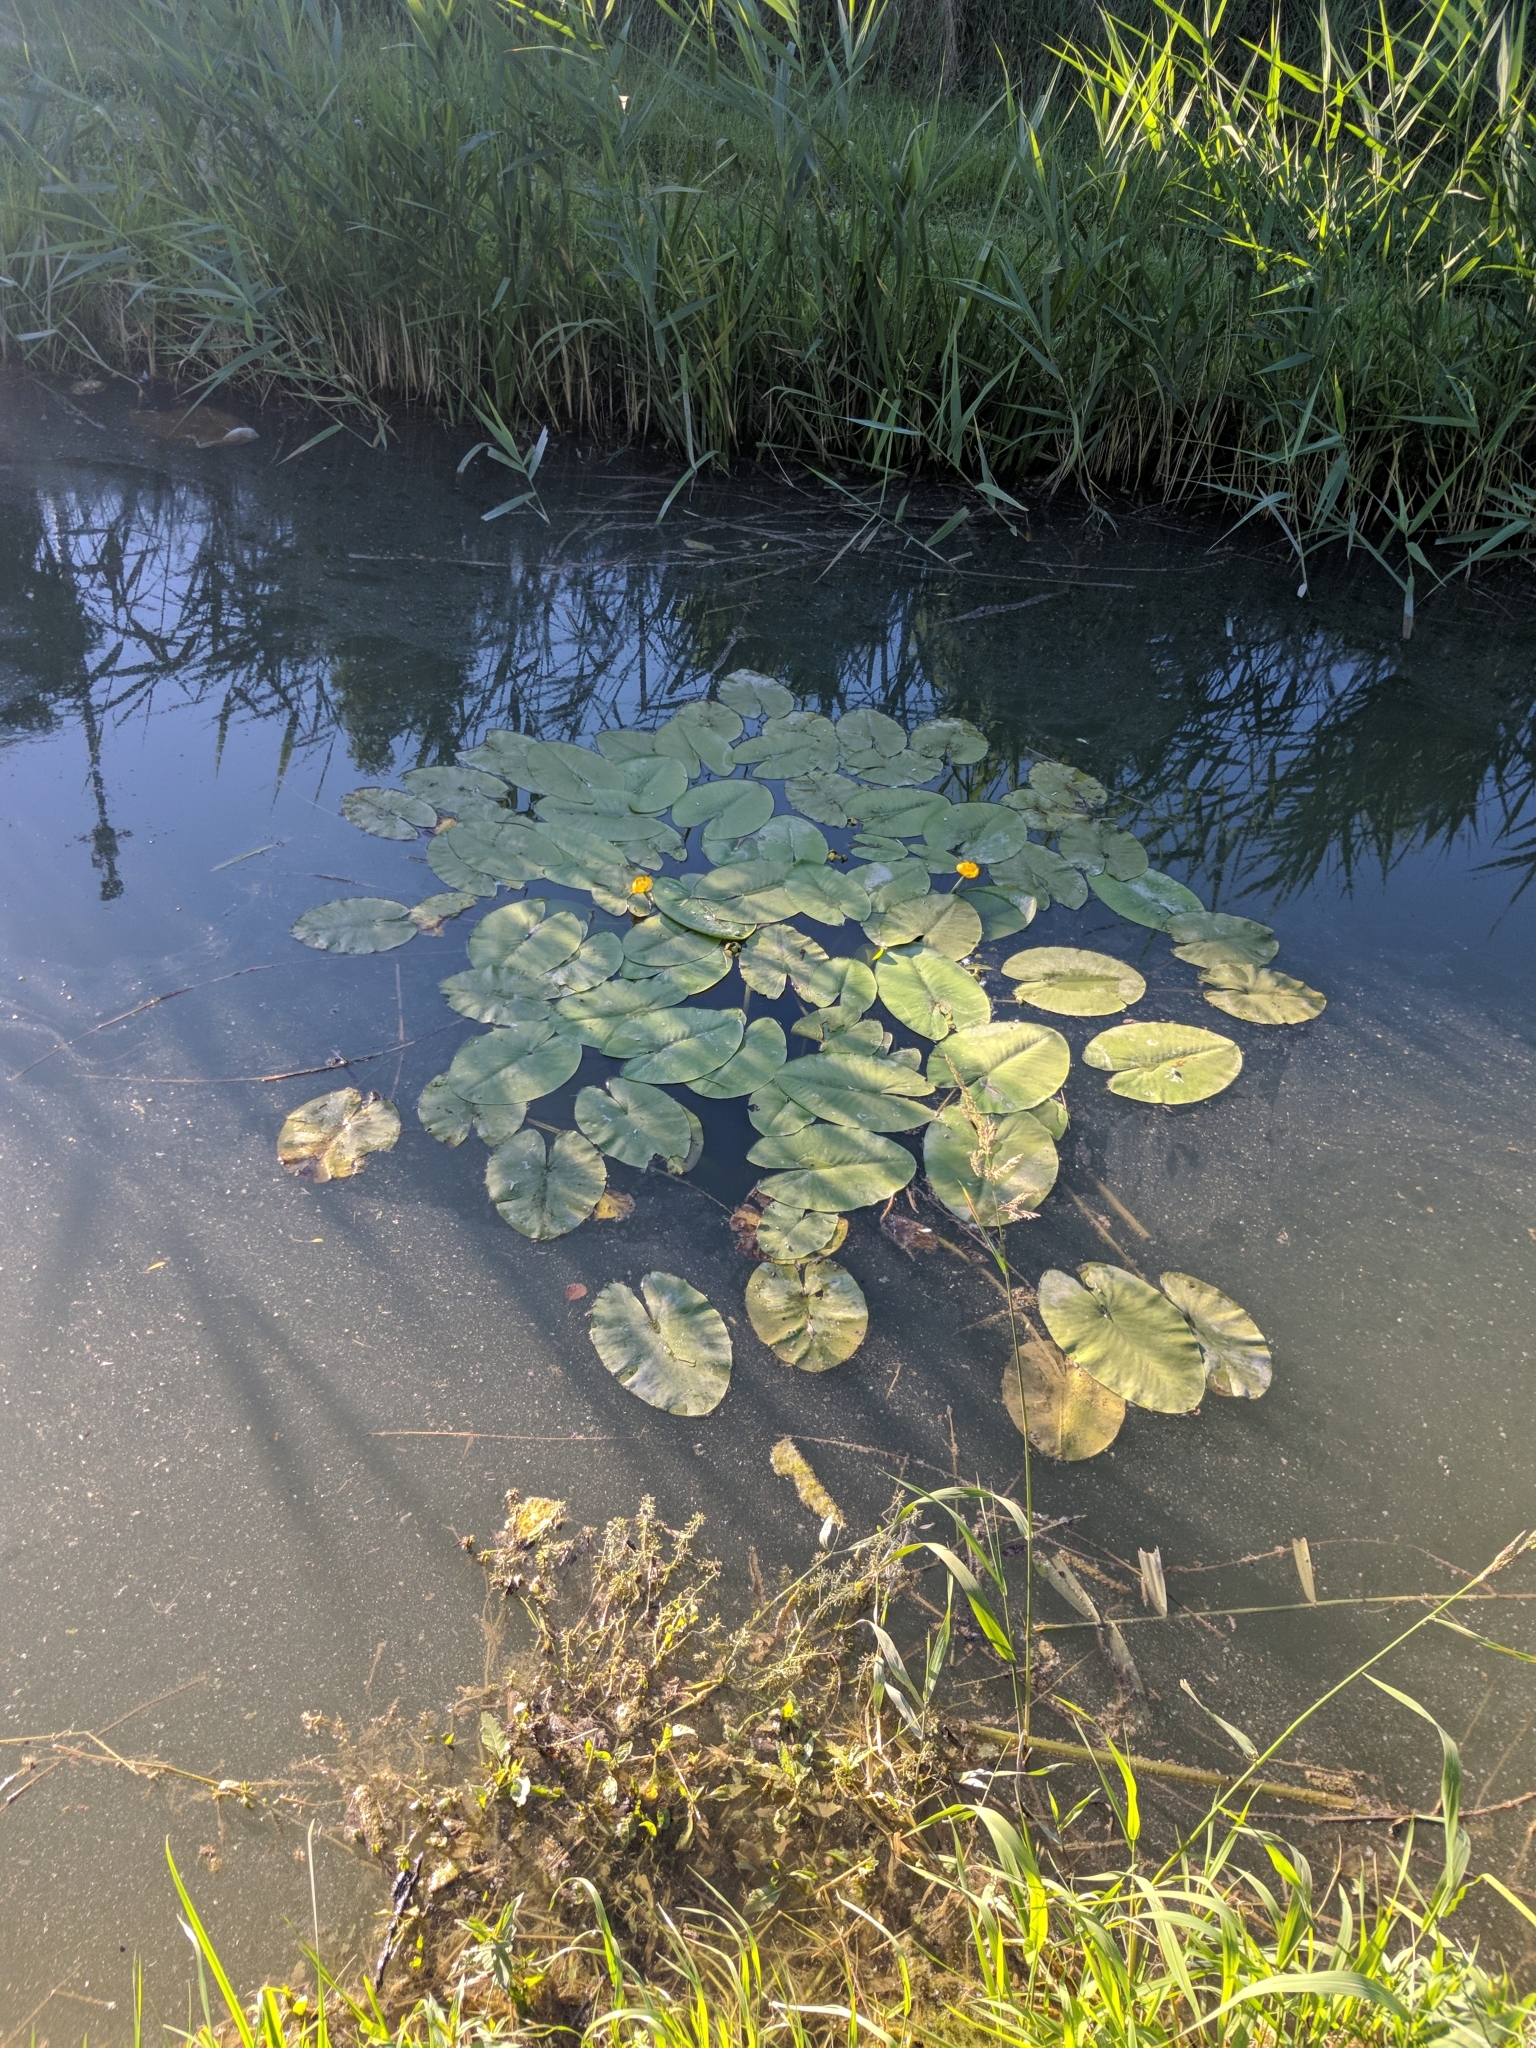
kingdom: Plantae
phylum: Tracheophyta
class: Magnoliopsida
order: Nymphaeales
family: Nymphaeaceae
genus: Nuphar
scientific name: Nuphar lutea
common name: Yellow water-lily
